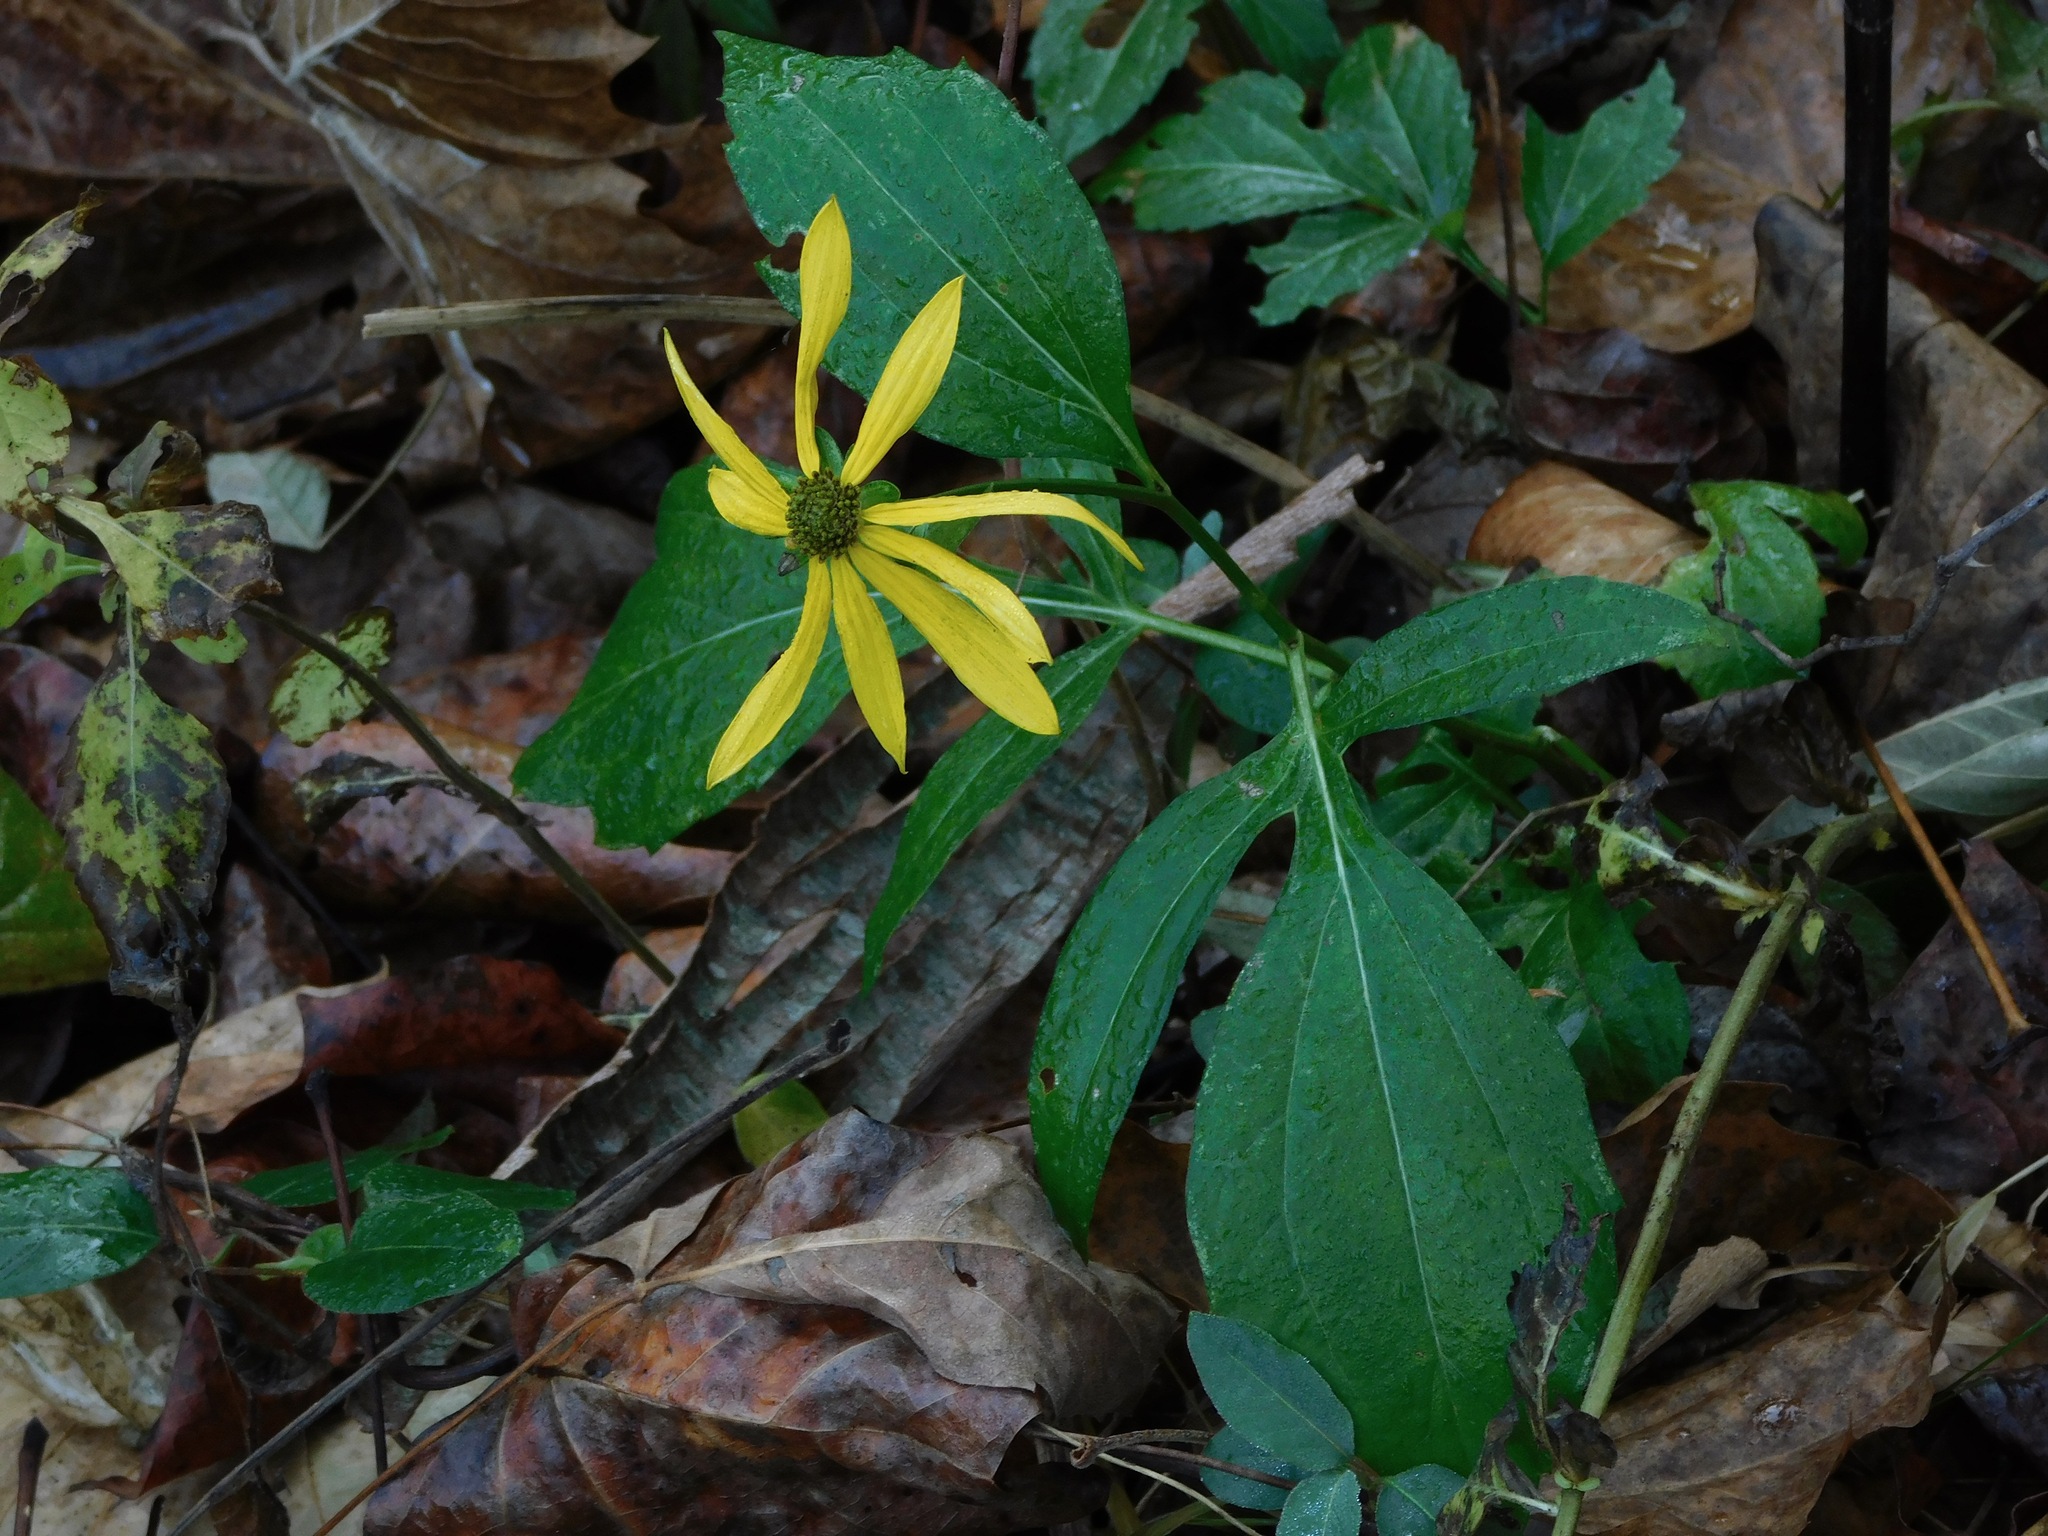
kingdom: Plantae
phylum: Tracheophyta
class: Magnoliopsida
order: Asterales
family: Asteraceae
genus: Rudbeckia
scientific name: Rudbeckia laciniata
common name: Coneflower
